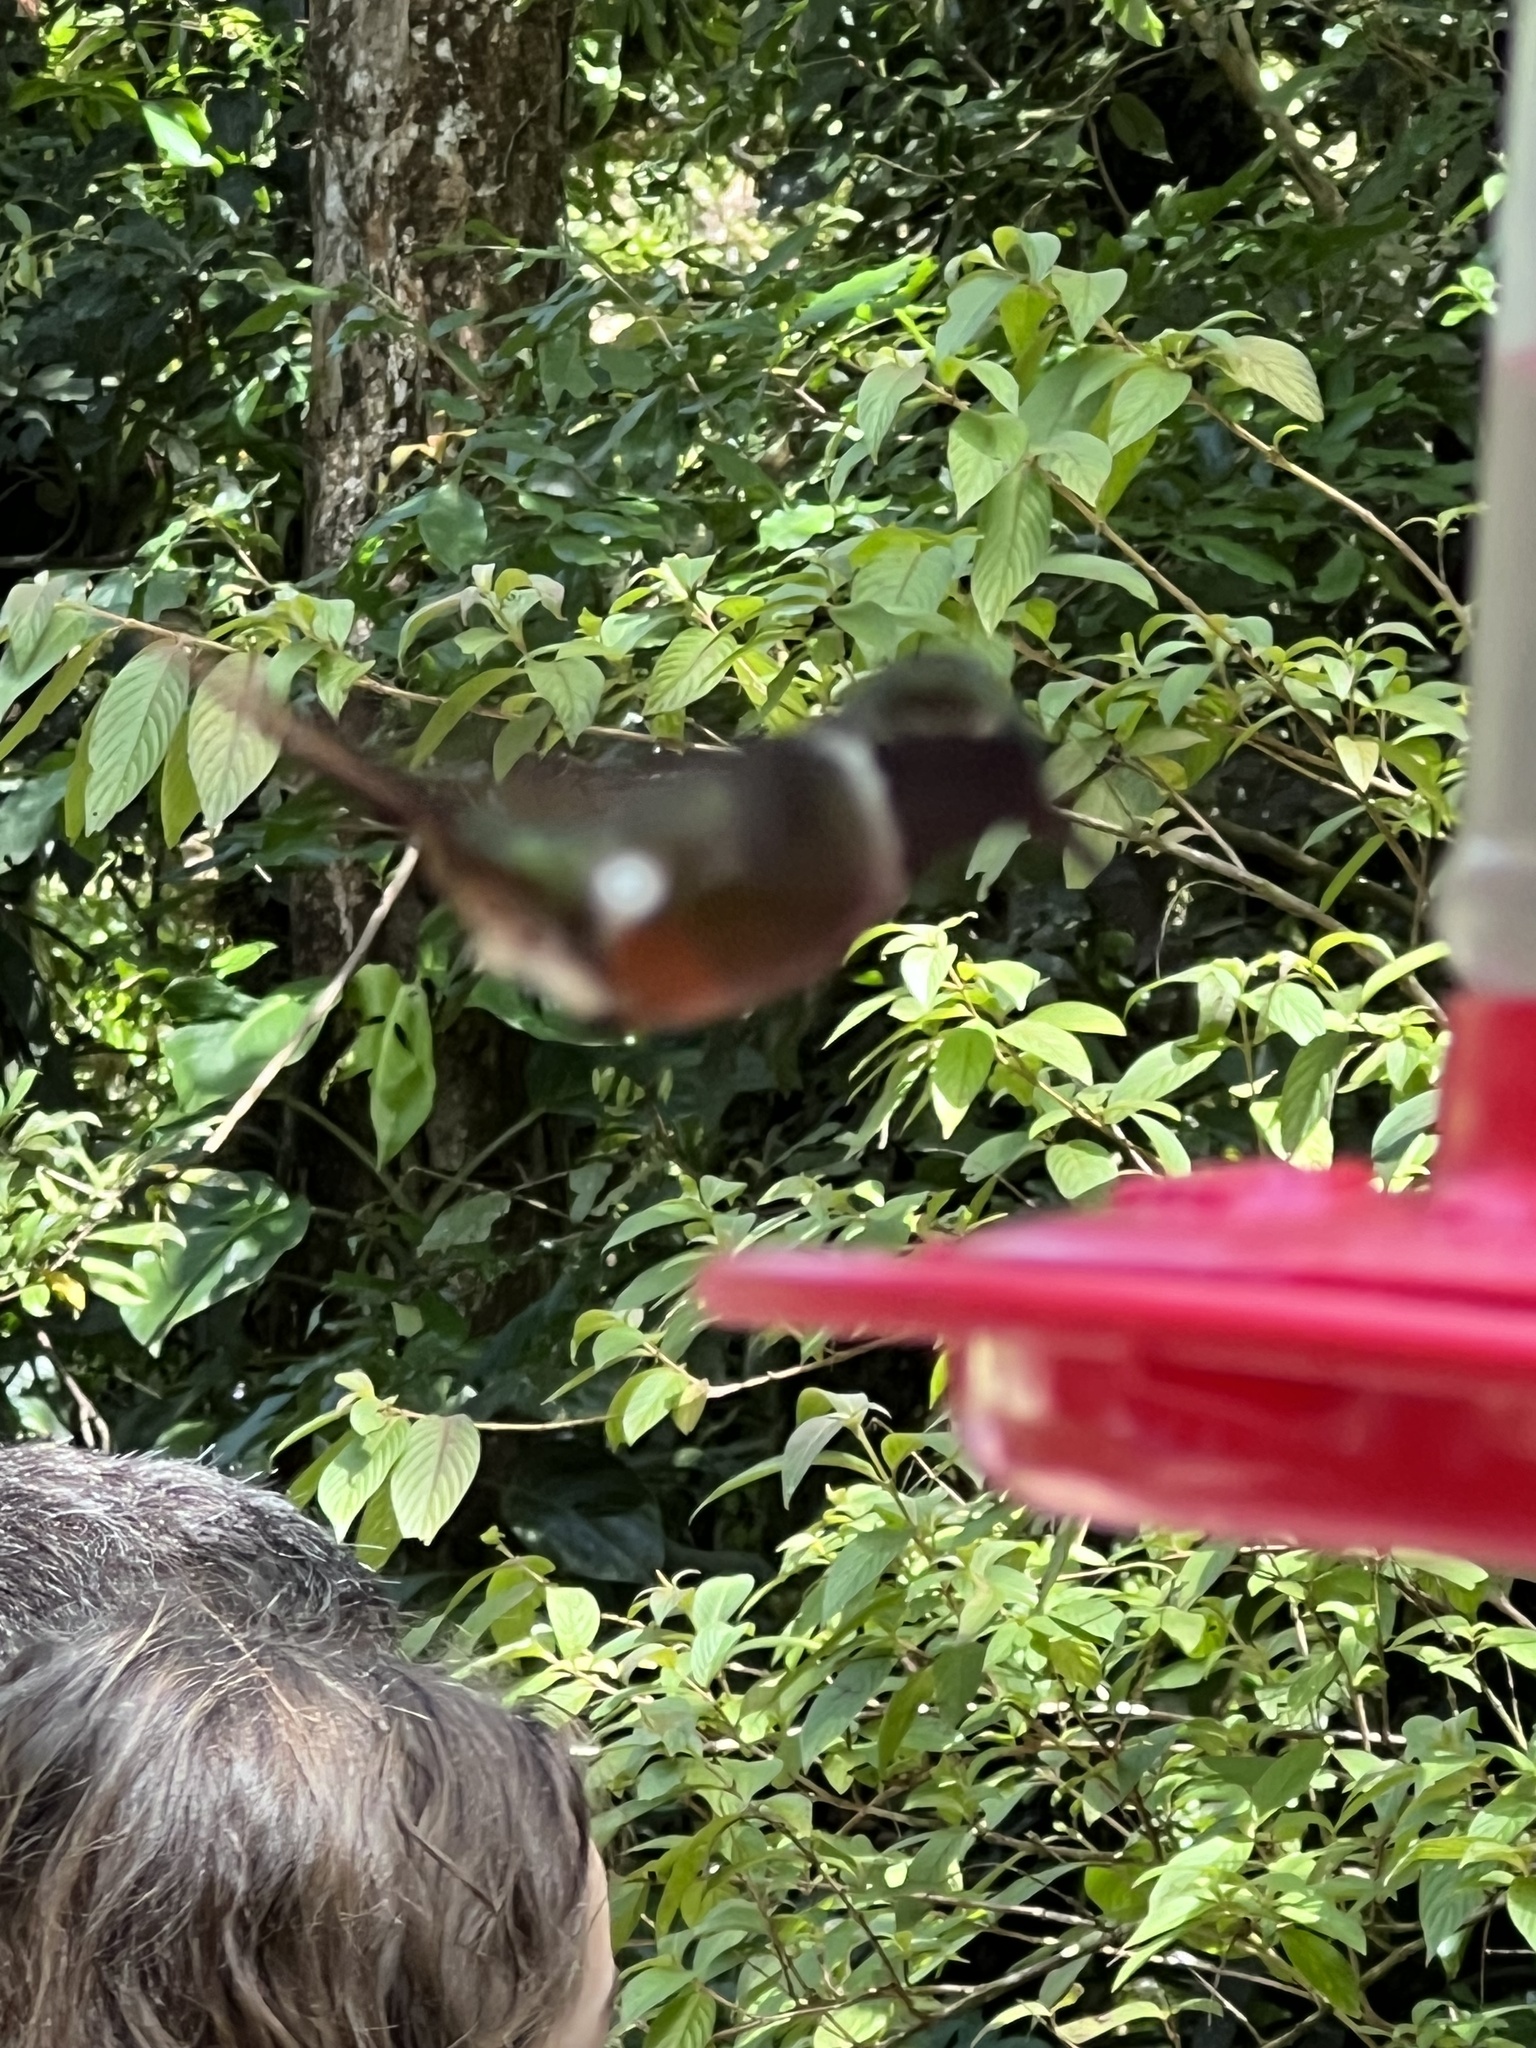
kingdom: Animalia
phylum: Chordata
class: Aves
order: Apodiformes
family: Trochilidae
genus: Calliphlox
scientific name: Calliphlox bryantae
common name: Magenta-throated woodstar
